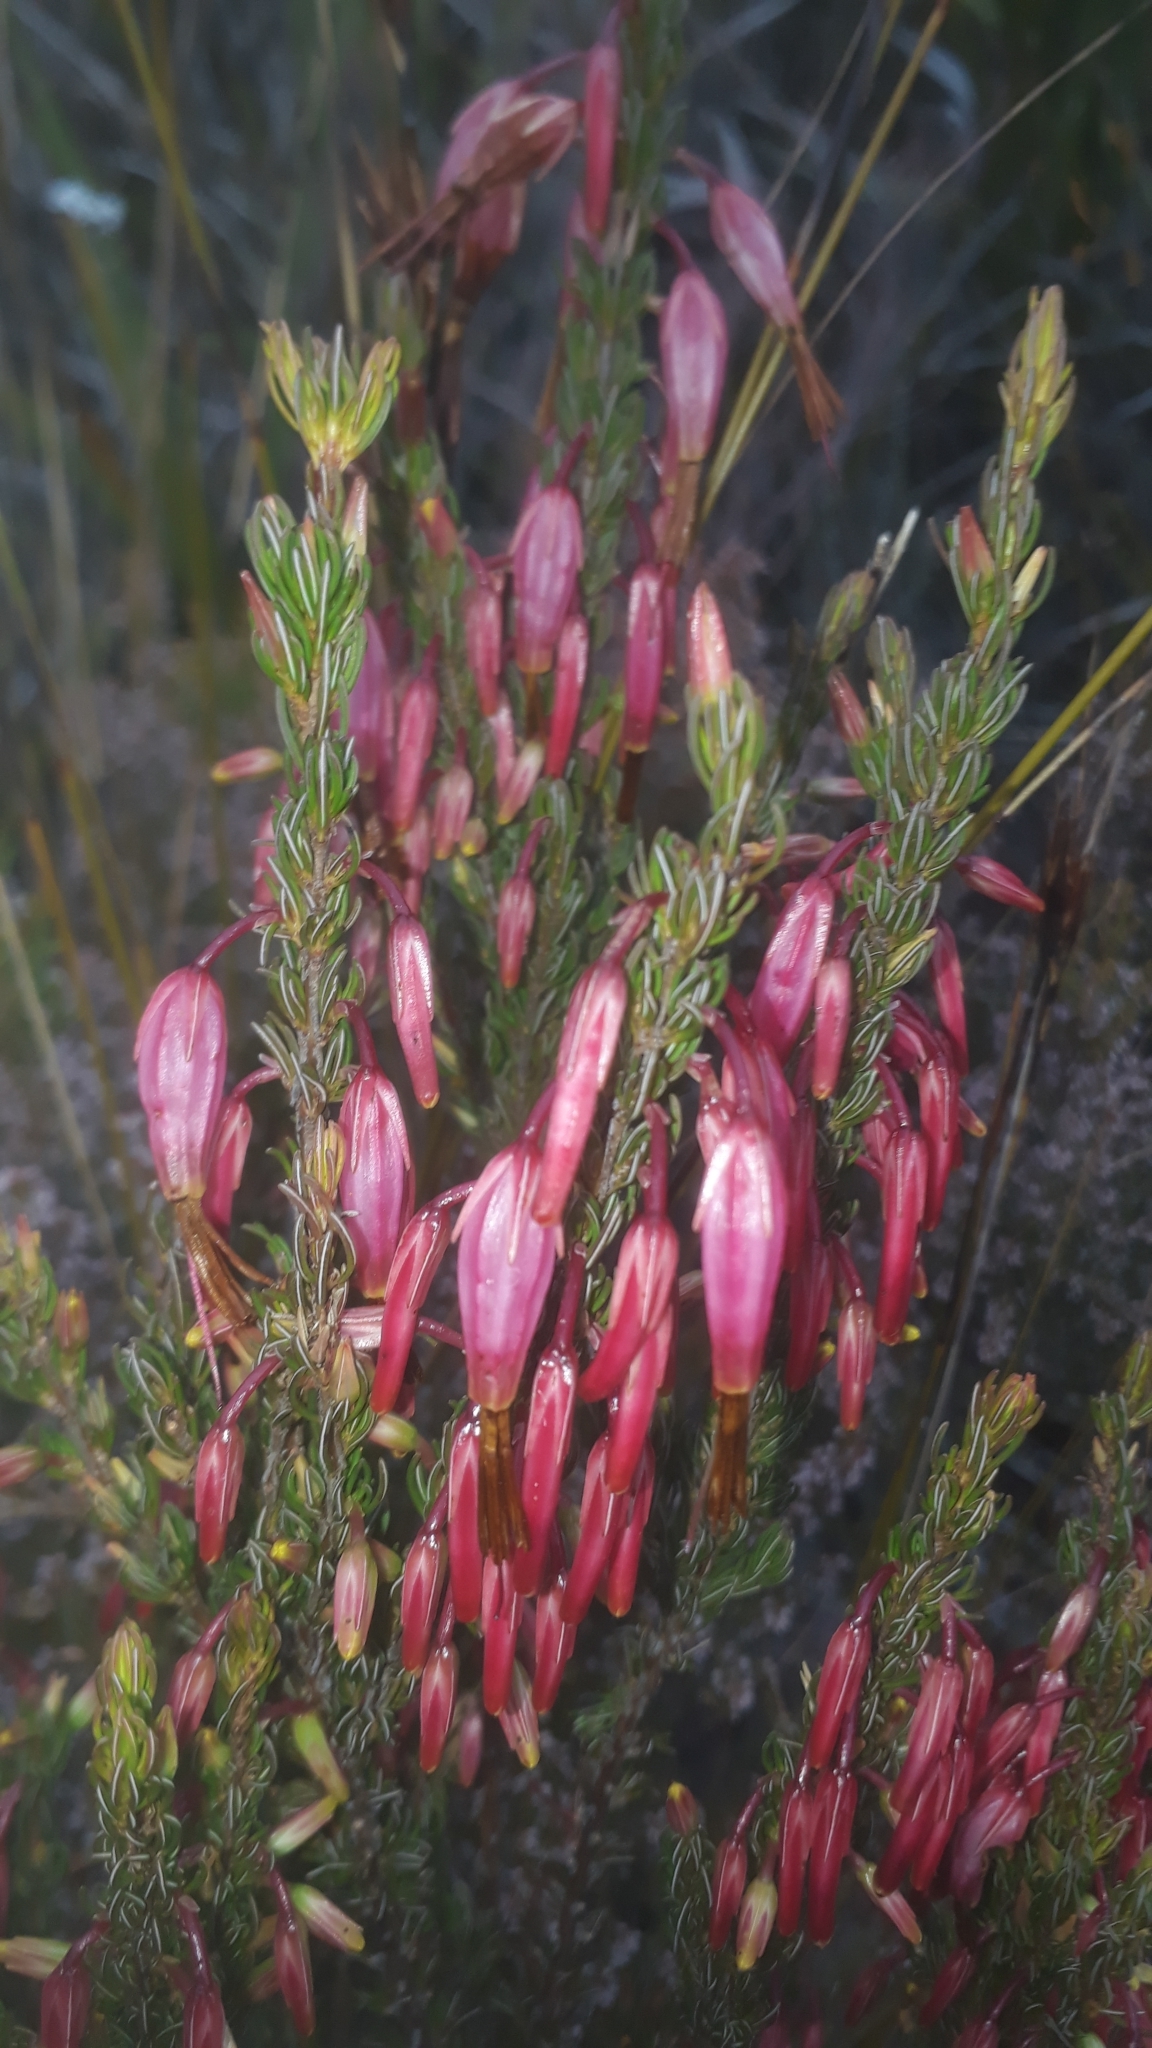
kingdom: Plantae
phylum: Tracheophyta
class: Magnoliopsida
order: Ericales
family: Ericaceae
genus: Erica
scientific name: Erica plukenetii
